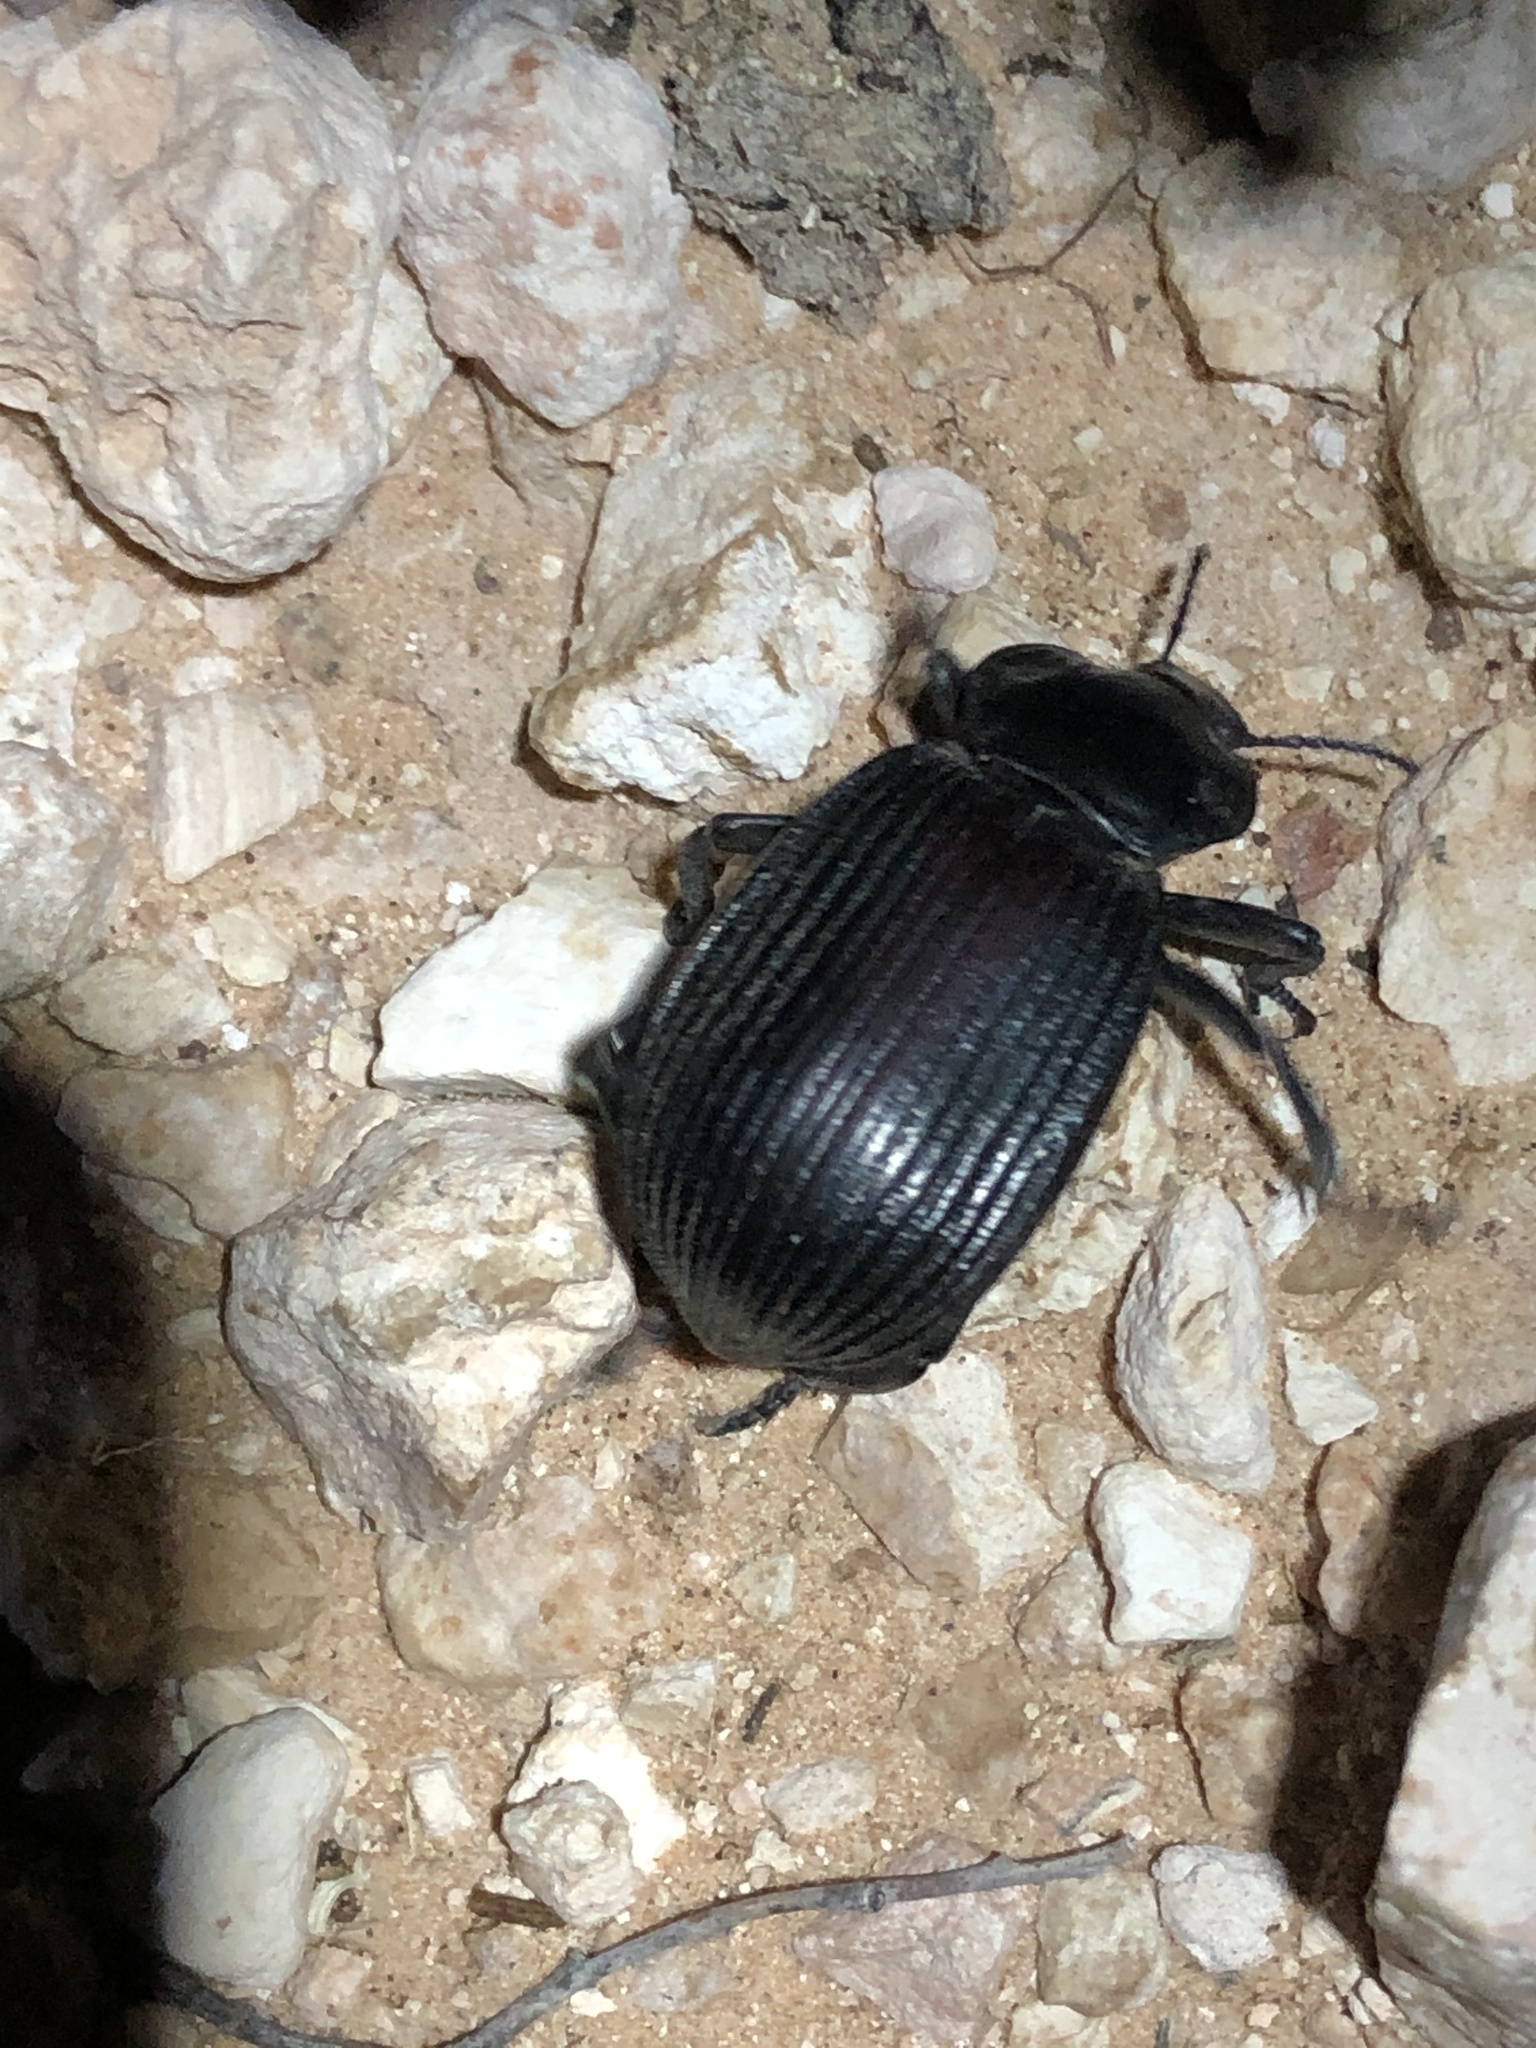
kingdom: Animalia
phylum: Arthropoda
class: Insecta
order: Coleoptera
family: Tenebrionidae
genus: Eleodes
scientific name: Eleodes acuta
